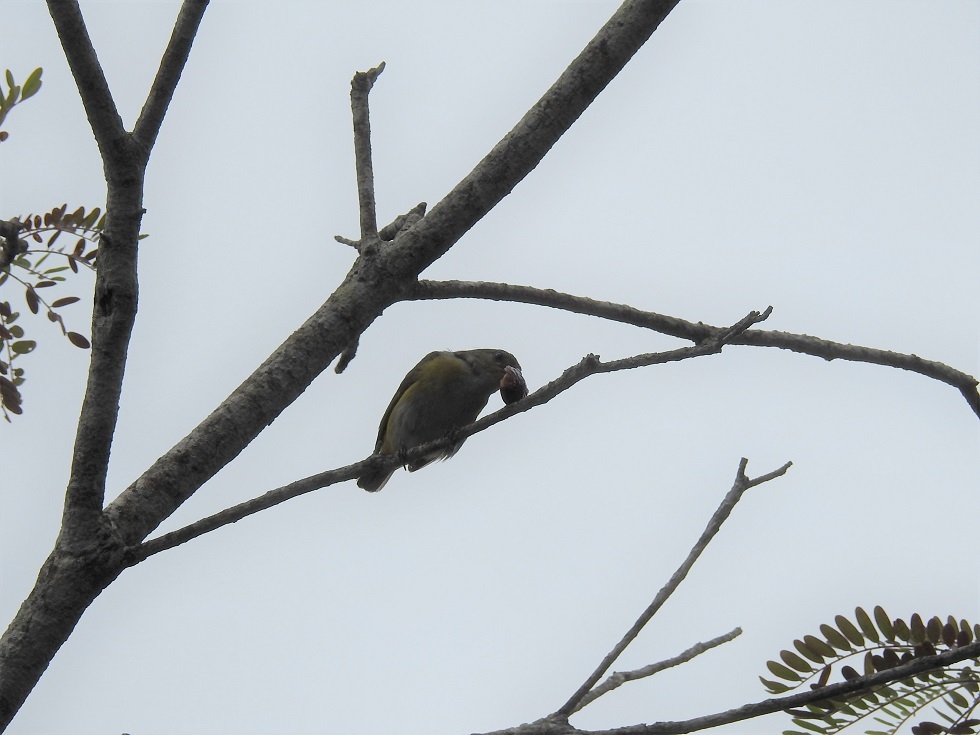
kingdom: Animalia
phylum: Chordata
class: Aves
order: Passeriformes
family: Fringillidae
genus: Euphonia
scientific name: Euphonia hirundinacea
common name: Yellow-throated euphonia
